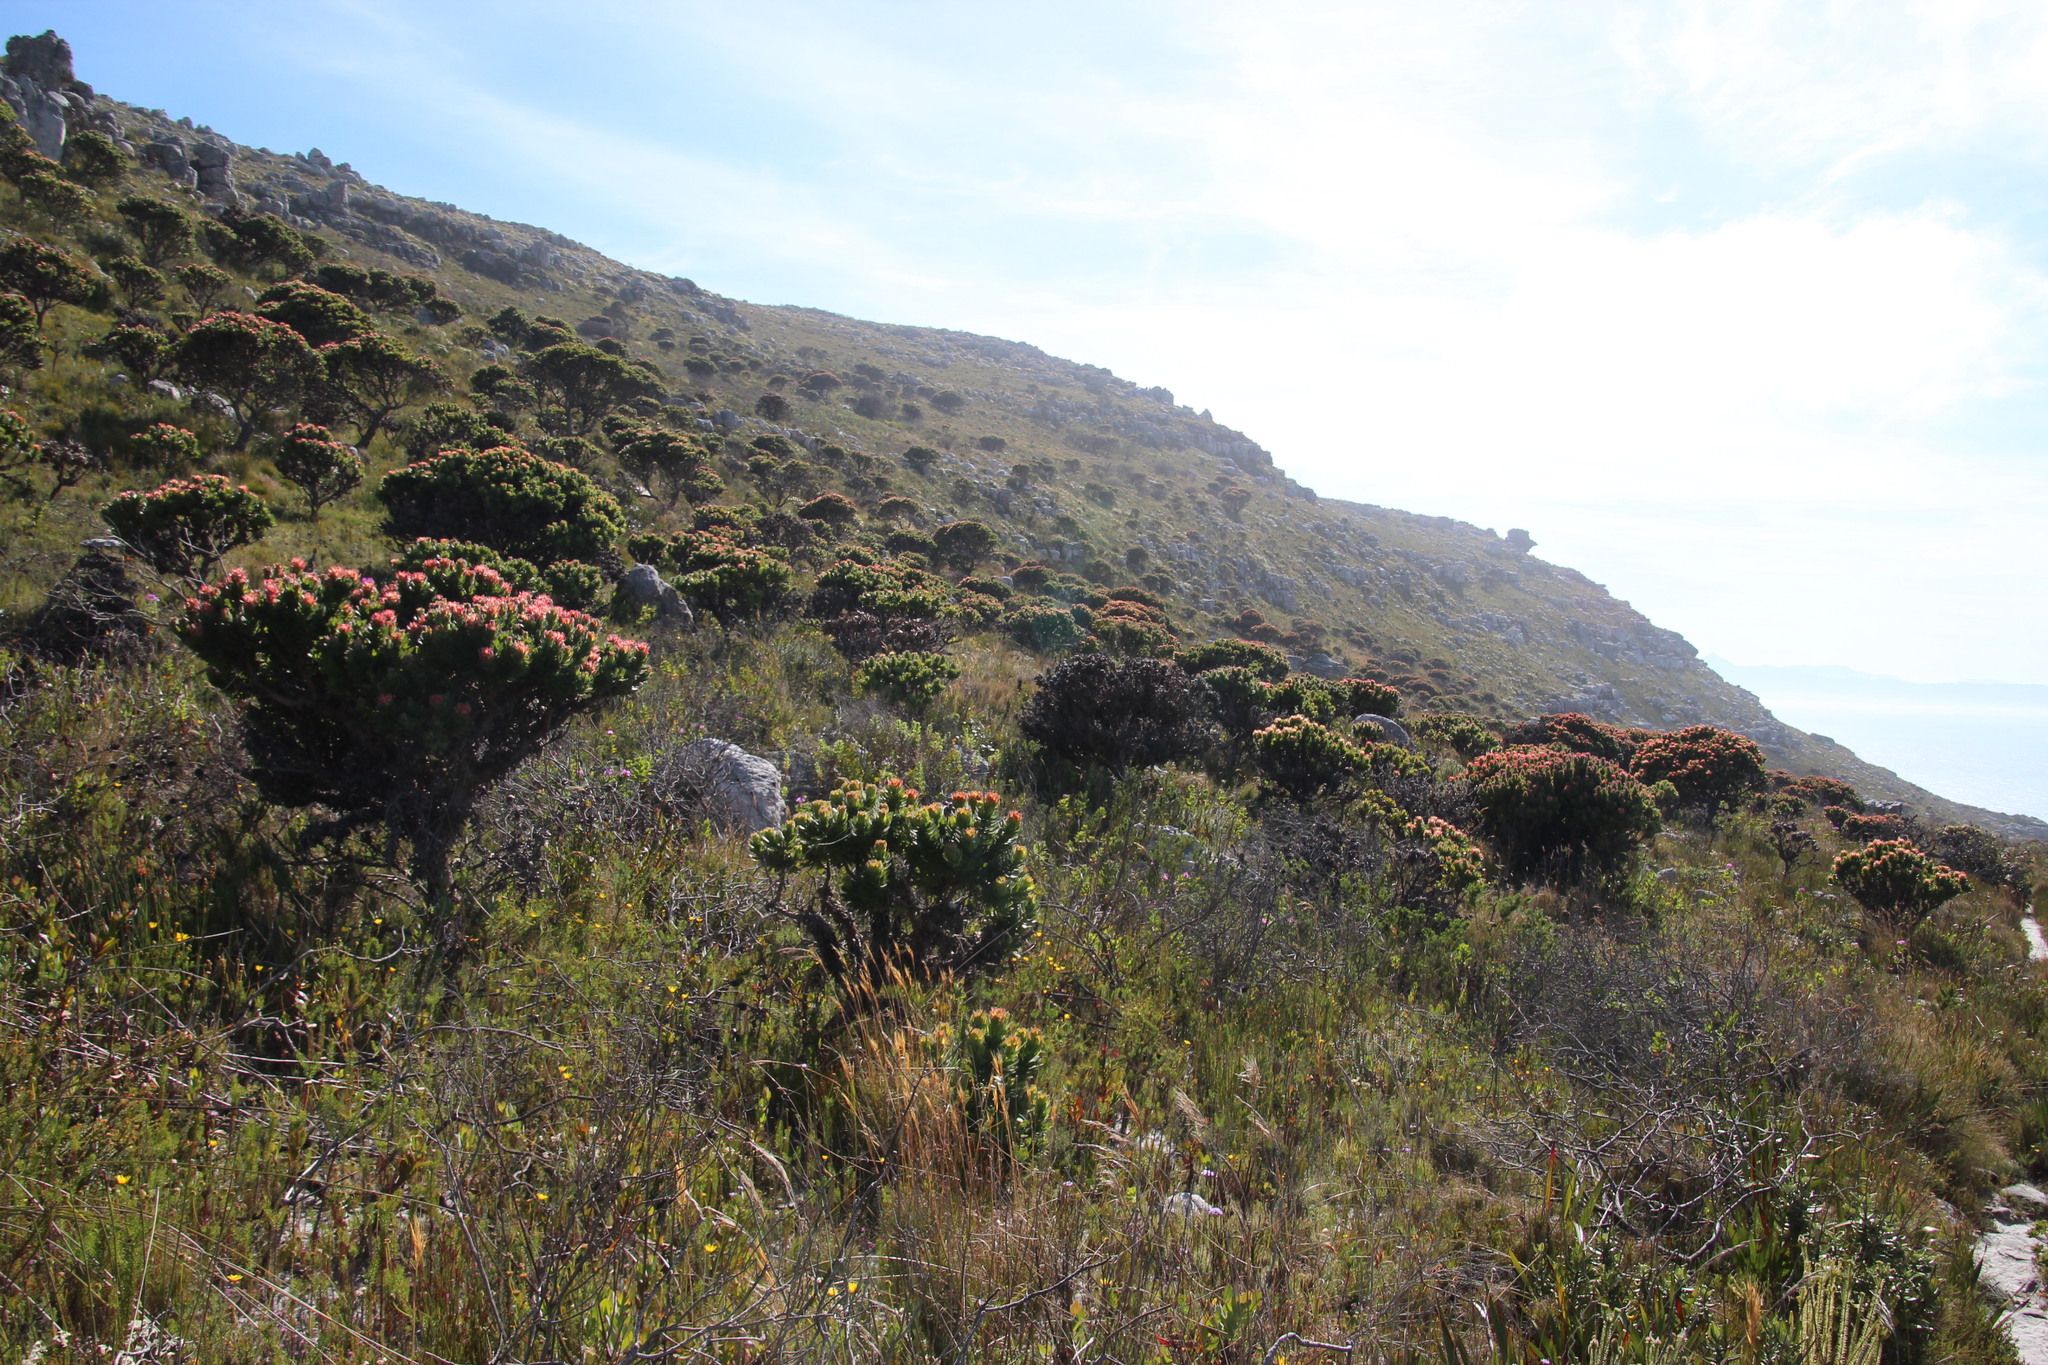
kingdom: Plantae
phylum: Tracheophyta
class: Magnoliopsida
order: Proteales
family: Proteaceae
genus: Mimetes
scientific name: Mimetes fimbriifolius
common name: Fringed bottlebrush
